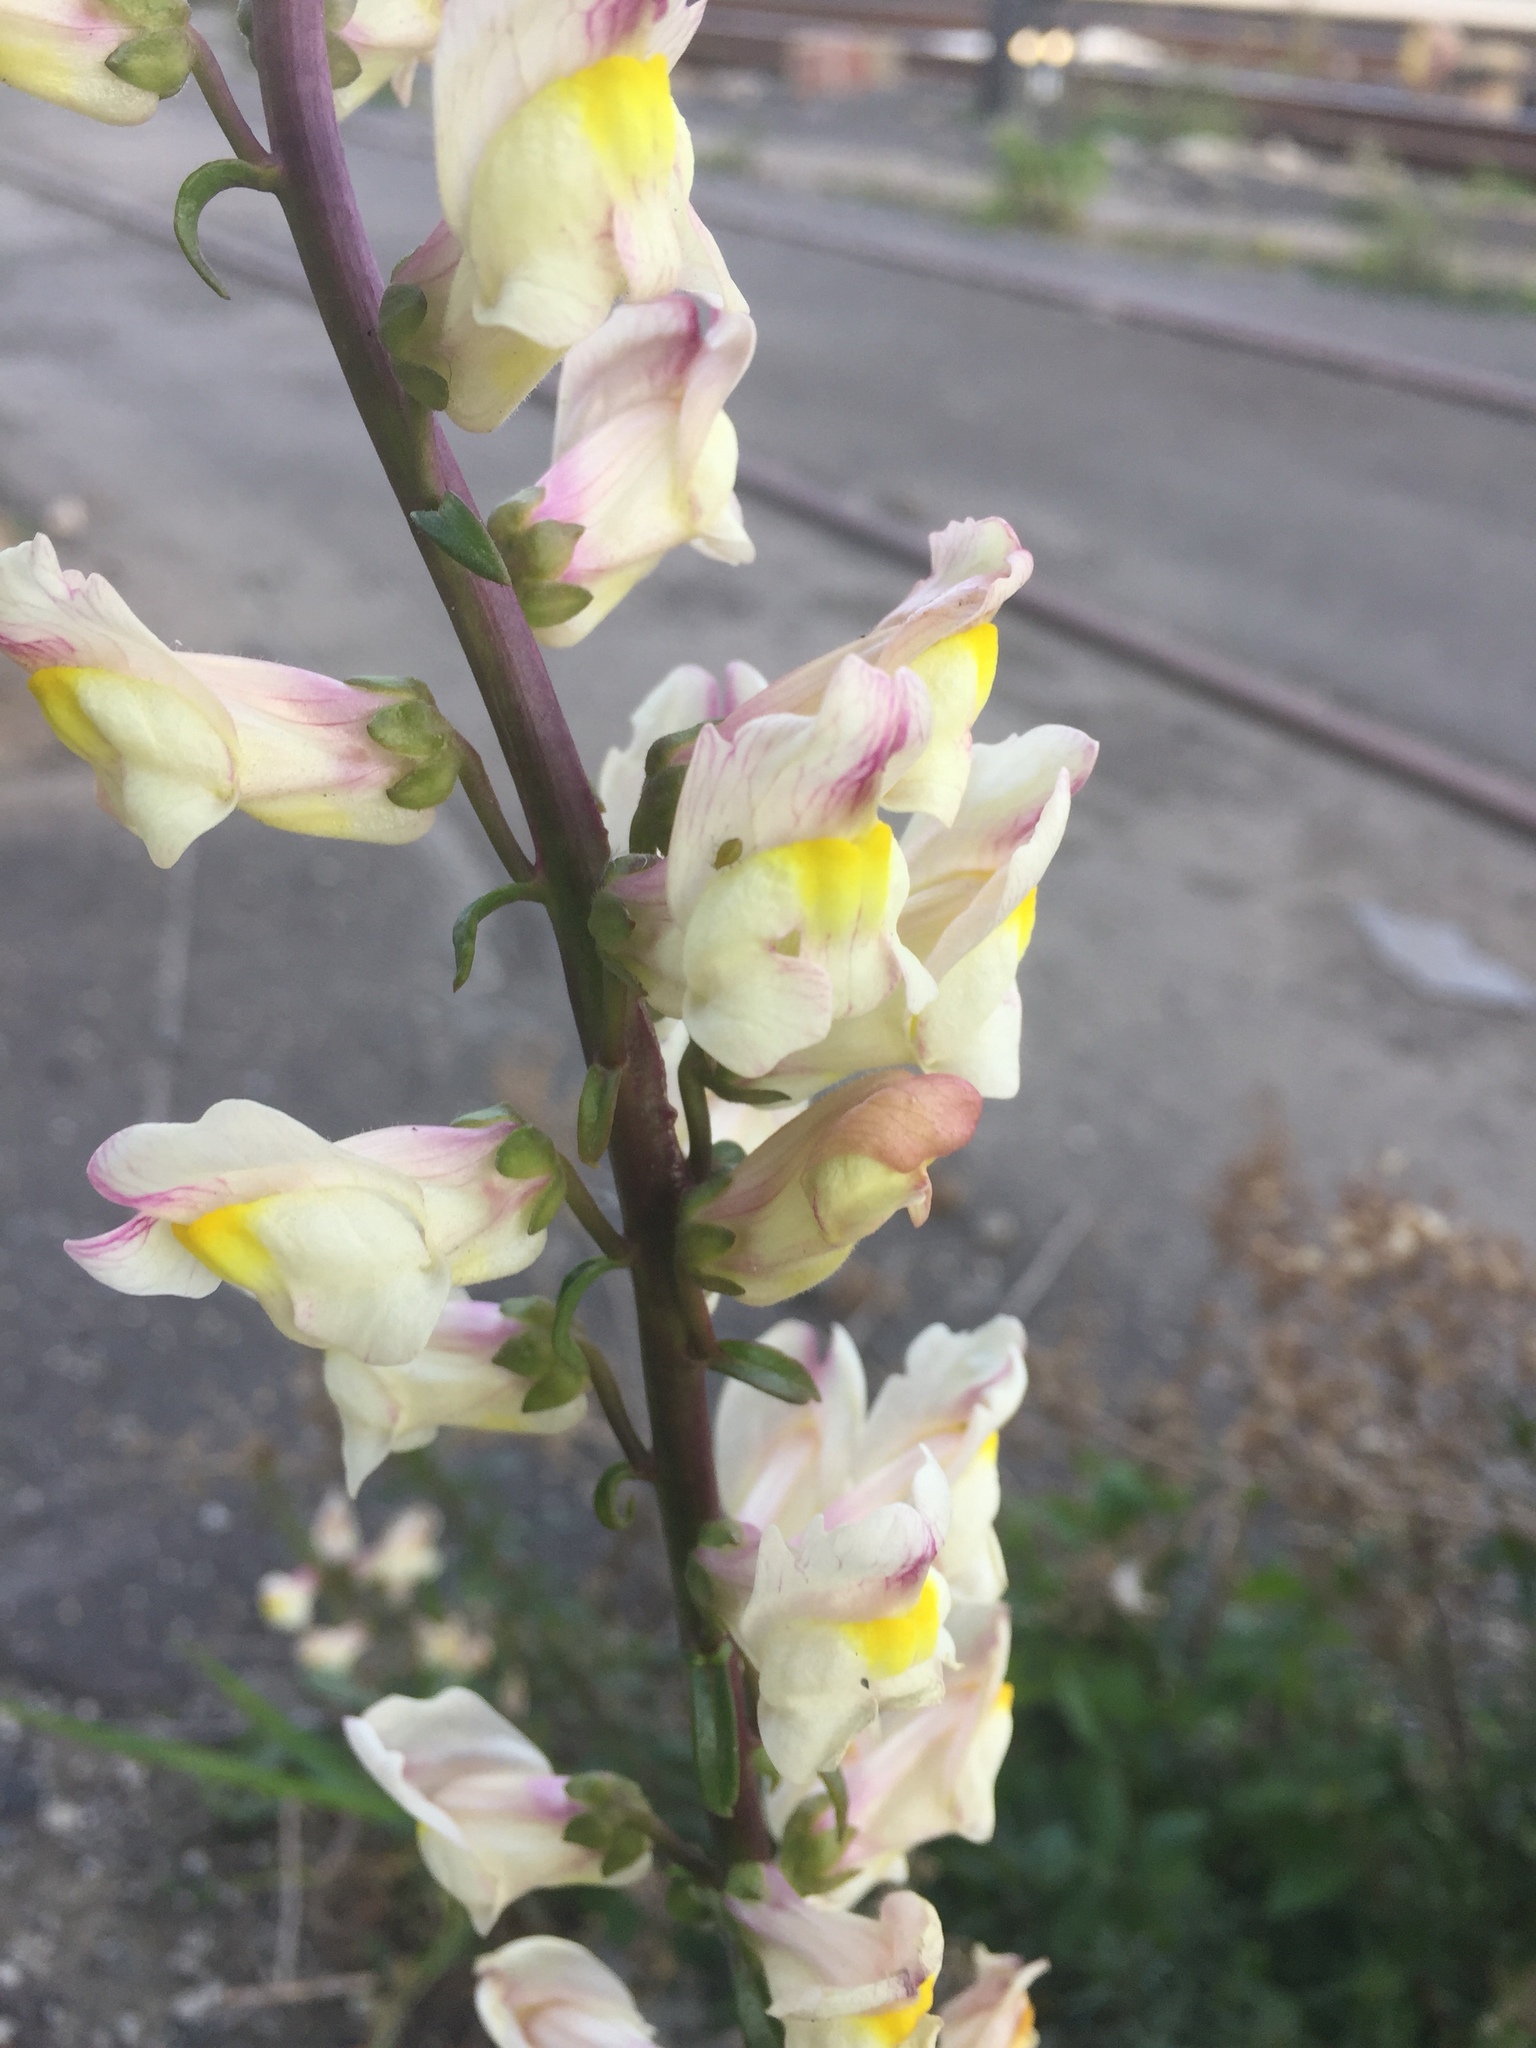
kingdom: Plantae
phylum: Tracheophyta
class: Magnoliopsida
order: Lamiales
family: Plantaginaceae
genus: Antirrhinum
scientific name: Antirrhinum siculum
